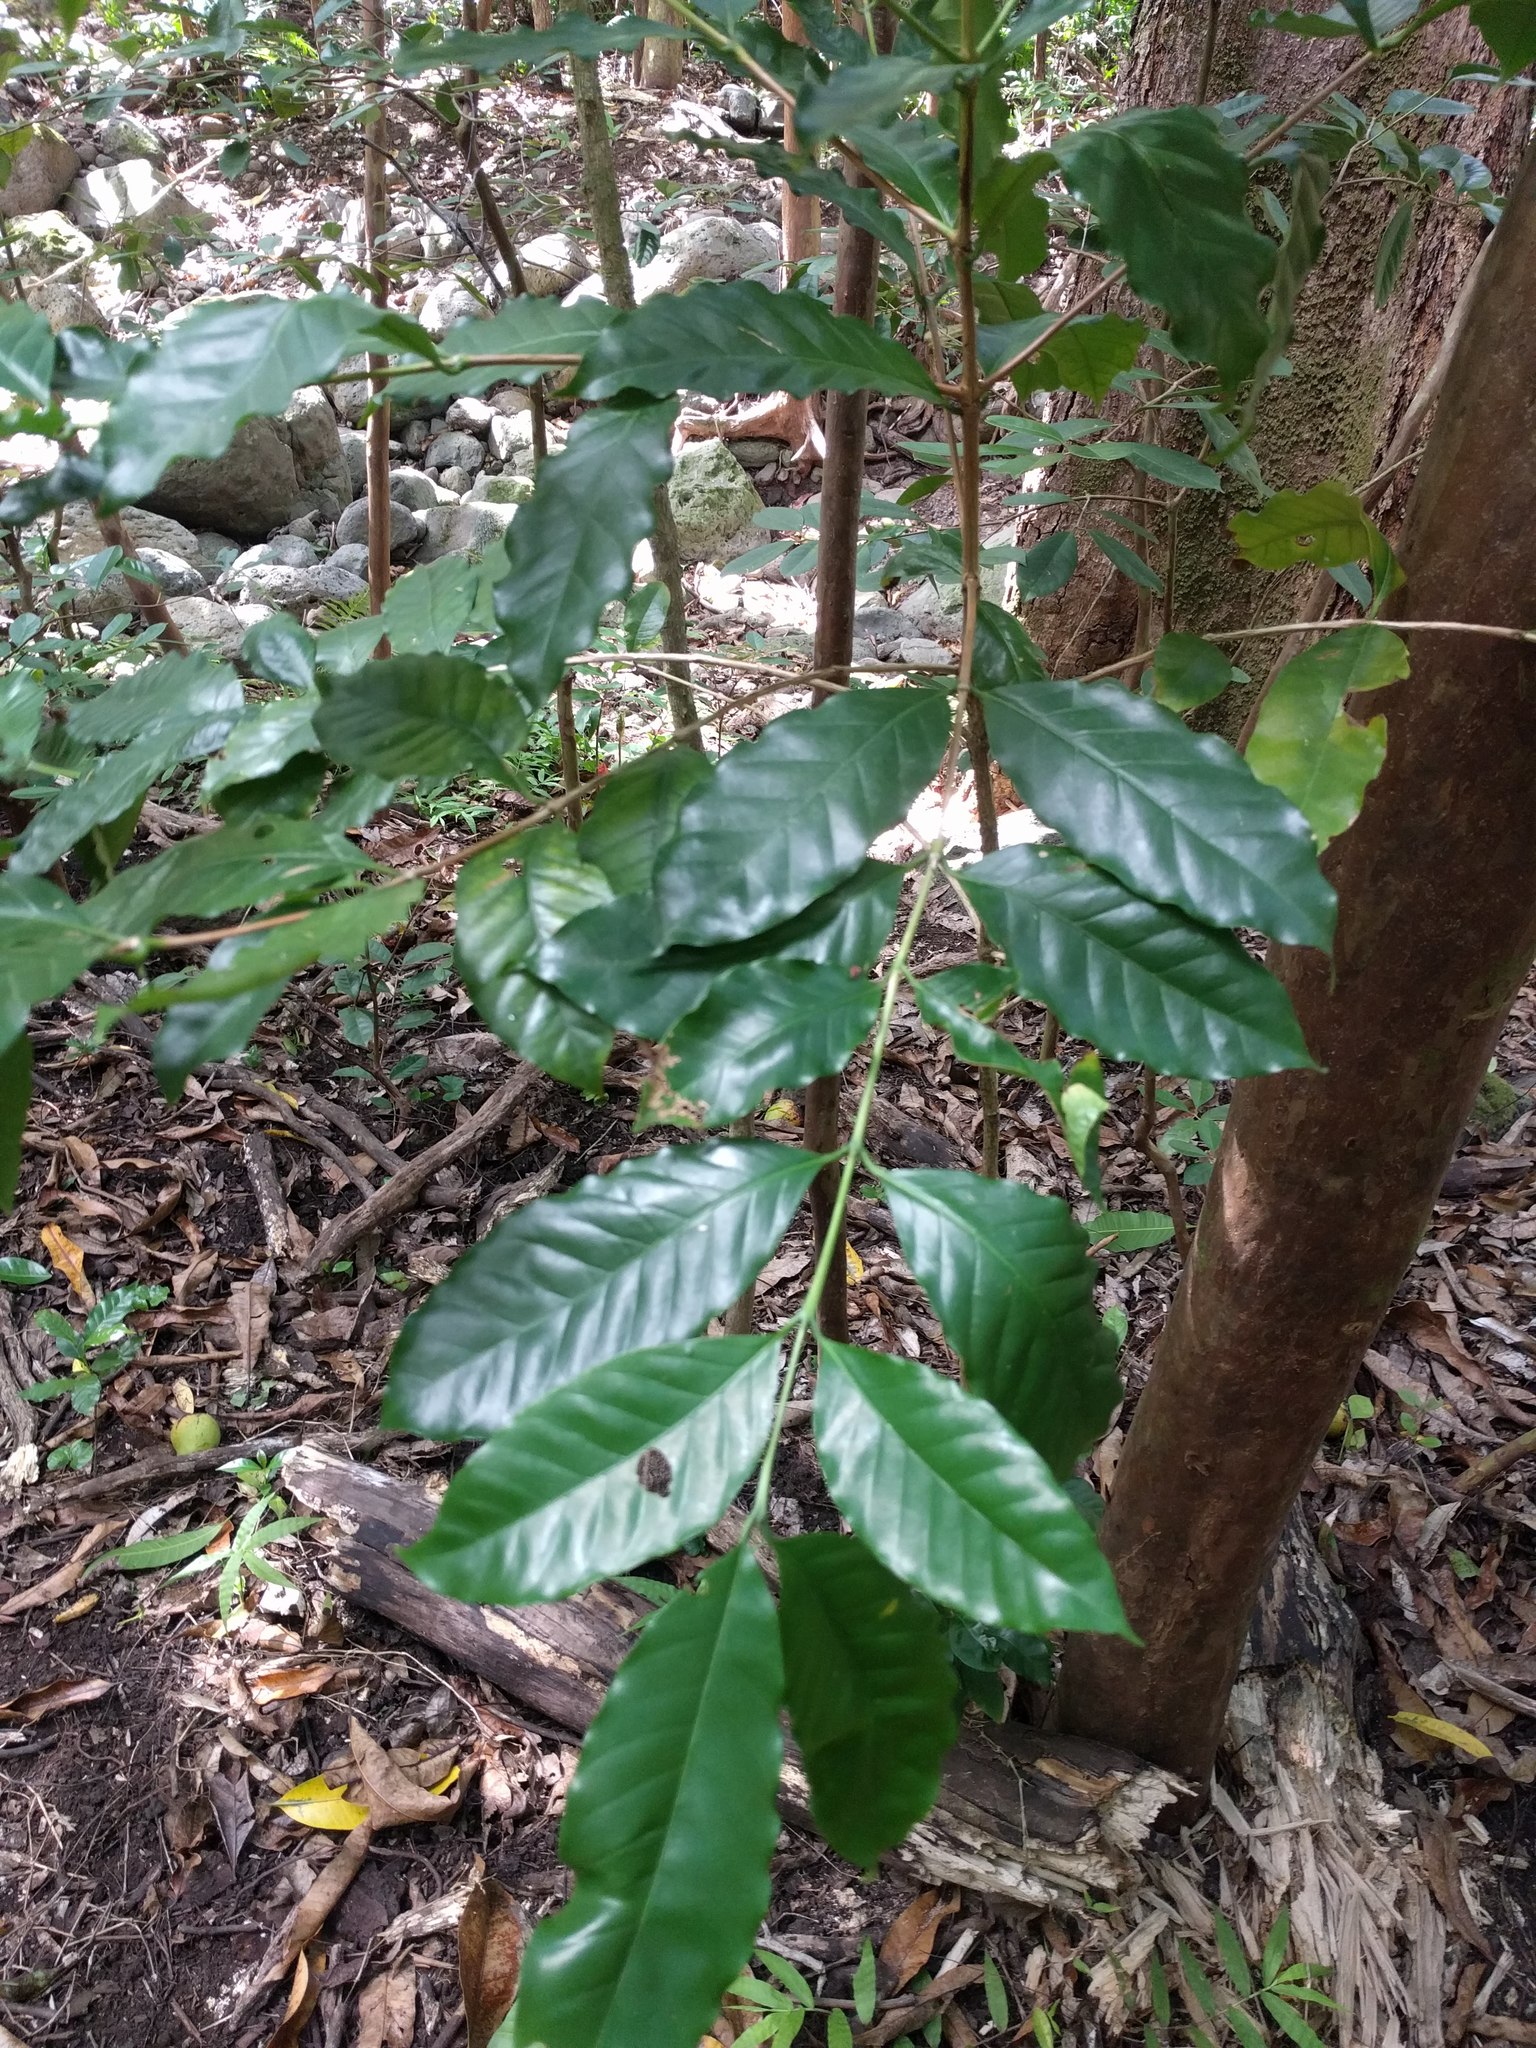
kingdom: Plantae
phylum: Tracheophyta
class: Magnoliopsida
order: Gentianales
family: Rubiaceae
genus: Coffea
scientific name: Coffea arabica
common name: Coffee
